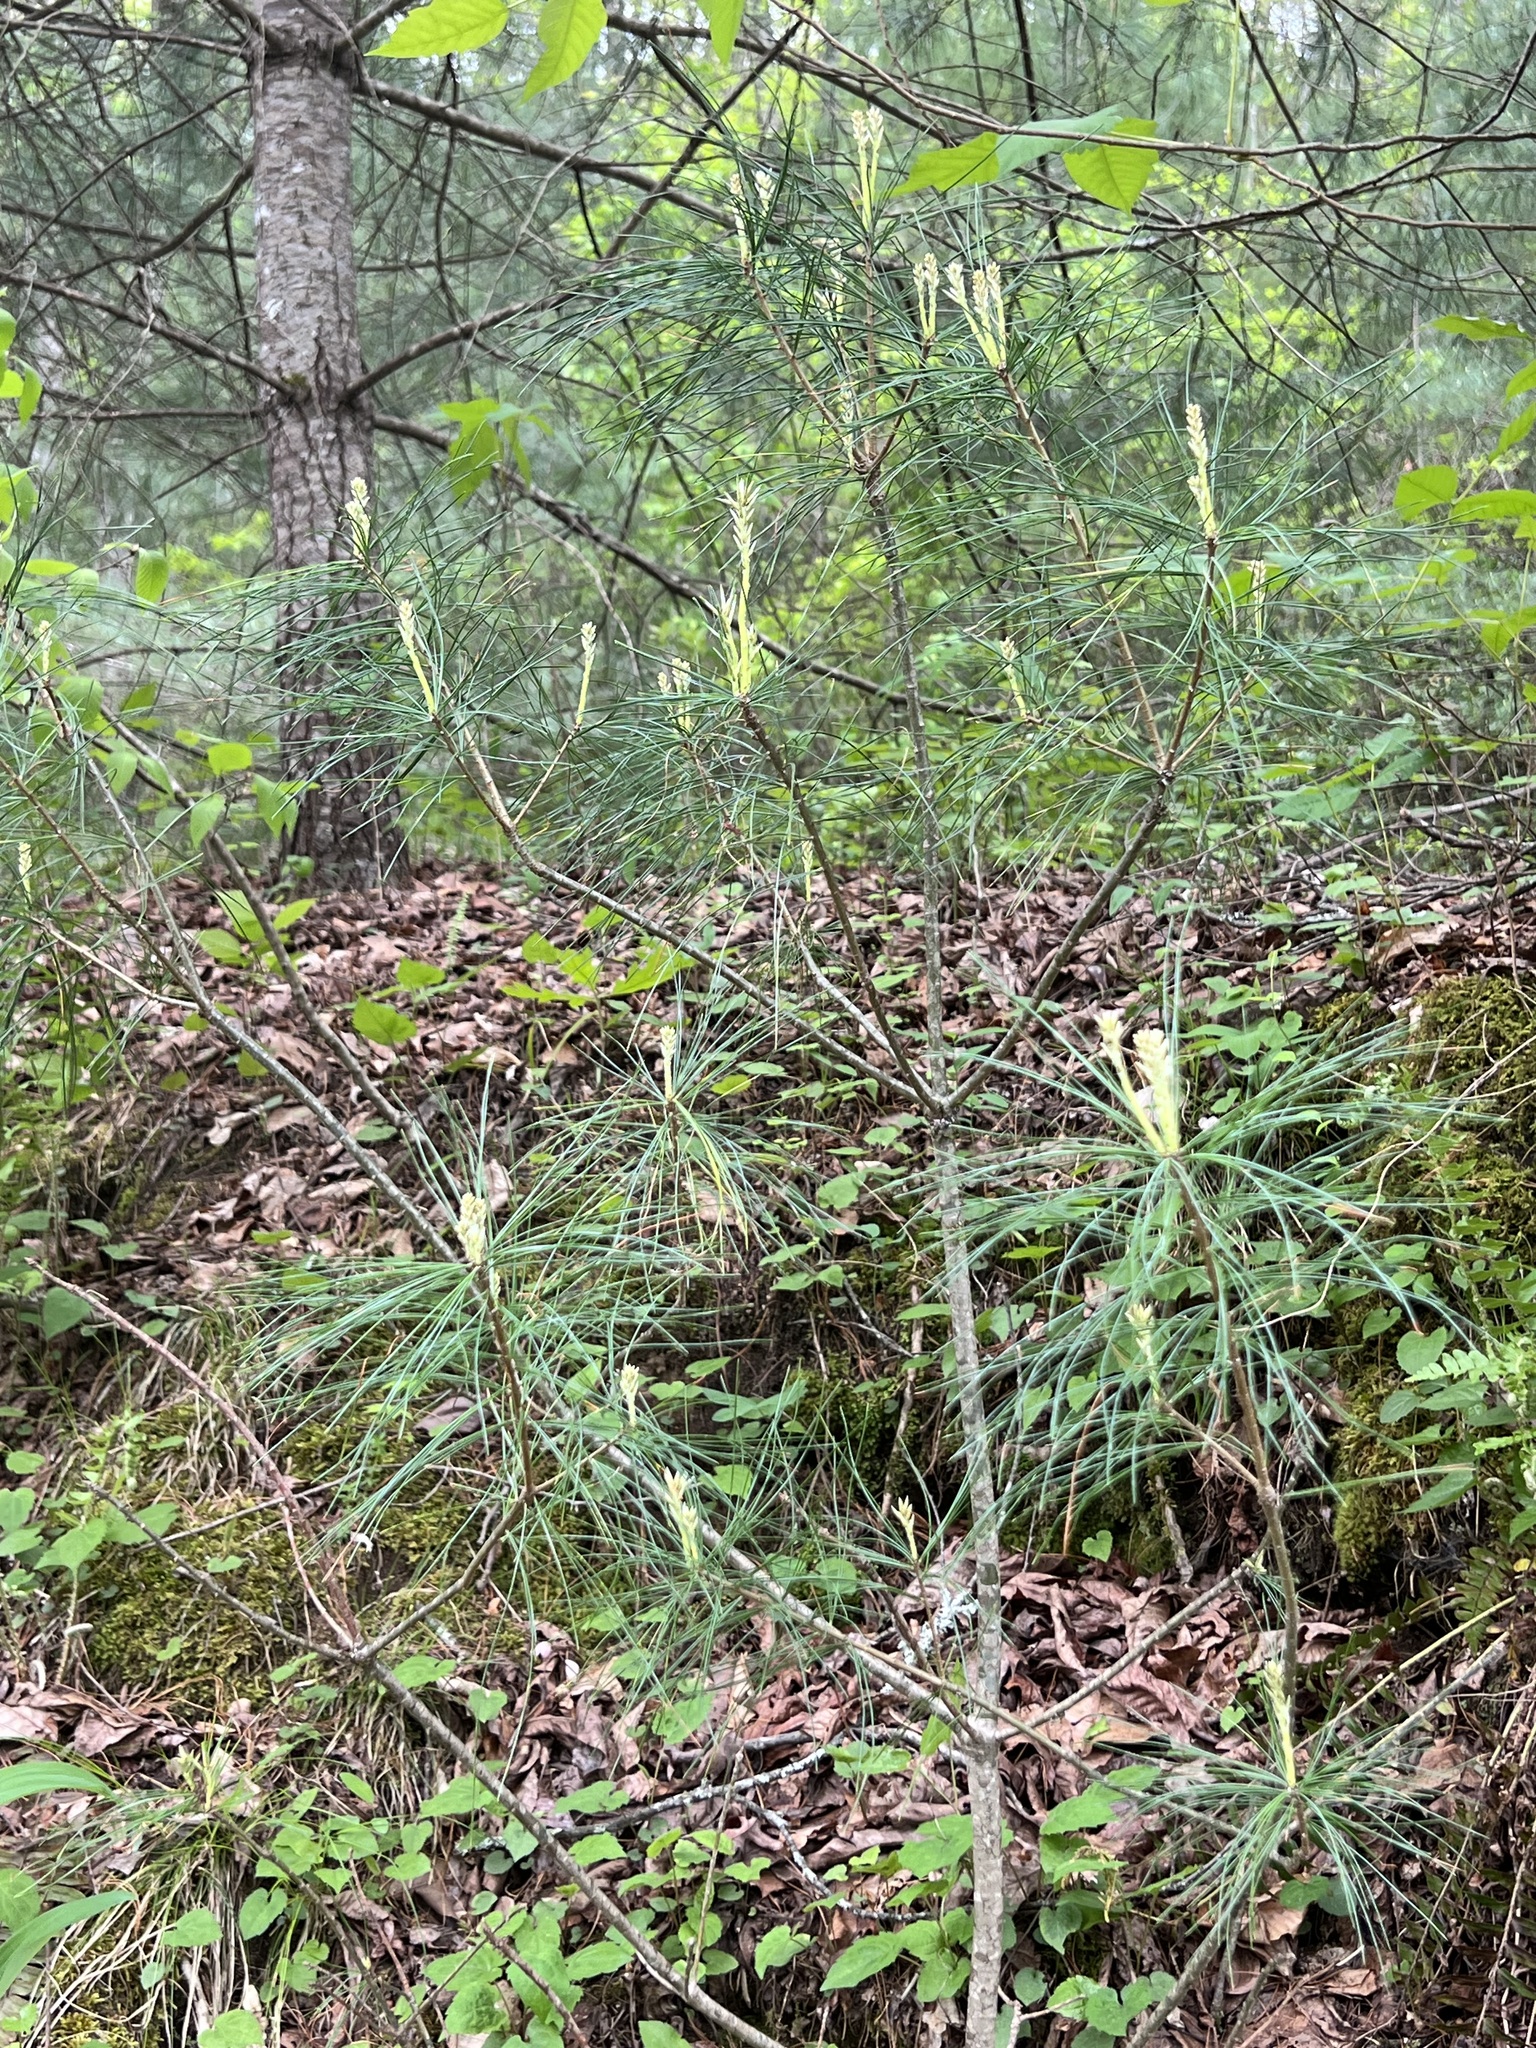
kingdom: Plantae
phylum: Tracheophyta
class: Pinopsida
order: Pinales
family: Pinaceae
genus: Pinus
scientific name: Pinus strobus
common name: Weymouth pine
